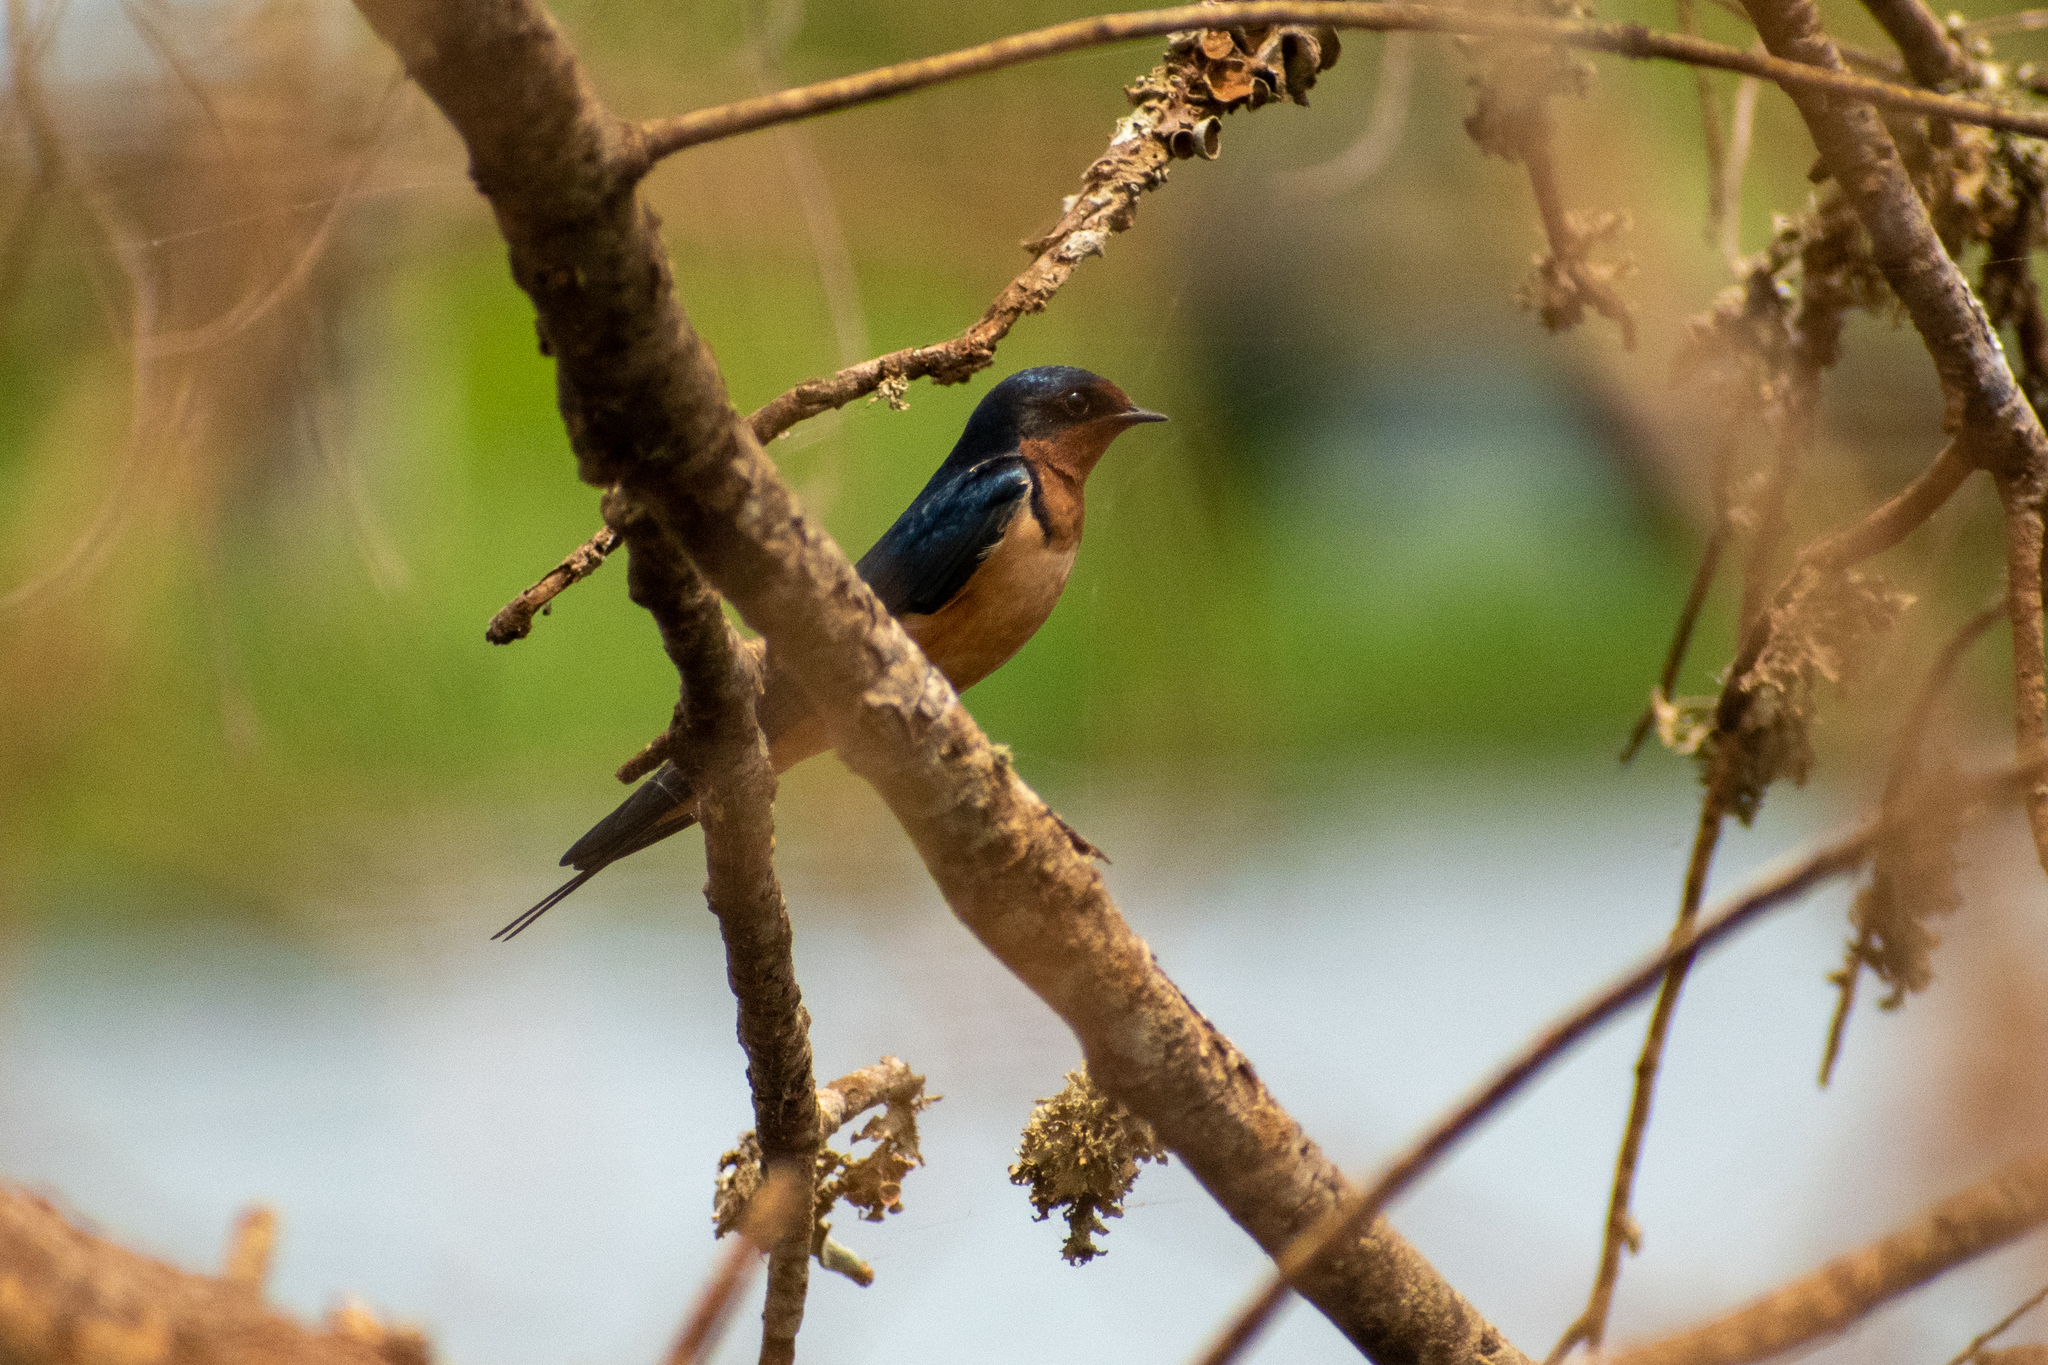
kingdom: Animalia
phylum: Chordata
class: Aves
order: Passeriformes
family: Hirundinidae
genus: Hirundo
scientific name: Hirundo rustica
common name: Barn swallow
